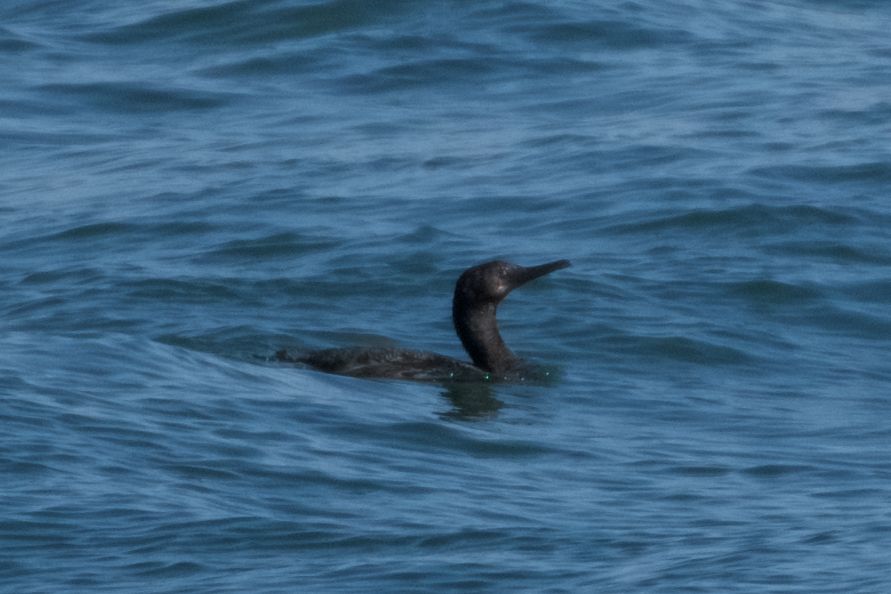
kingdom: Animalia
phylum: Chordata
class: Aves
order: Suliformes
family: Phalacrocoracidae
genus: Urile
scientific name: Urile penicillatus
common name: Brandt's cormorant
